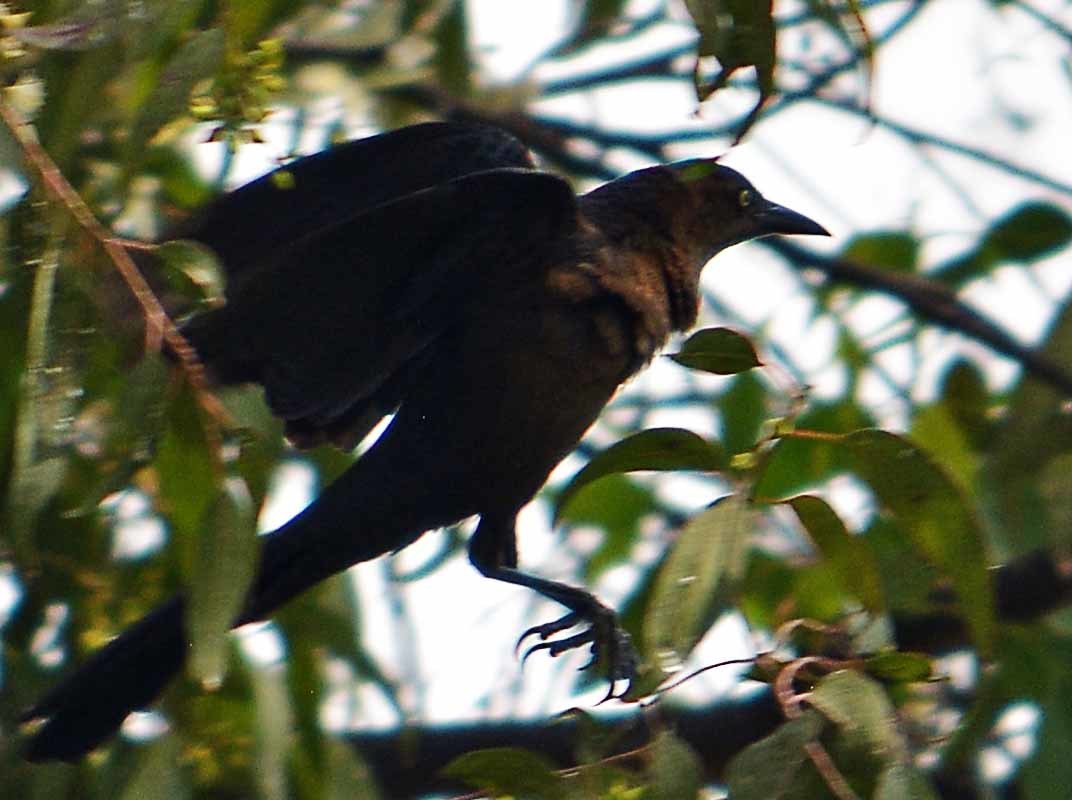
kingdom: Animalia
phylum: Chordata
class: Aves
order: Passeriformes
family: Icteridae
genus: Quiscalus
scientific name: Quiscalus mexicanus
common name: Great-tailed grackle
